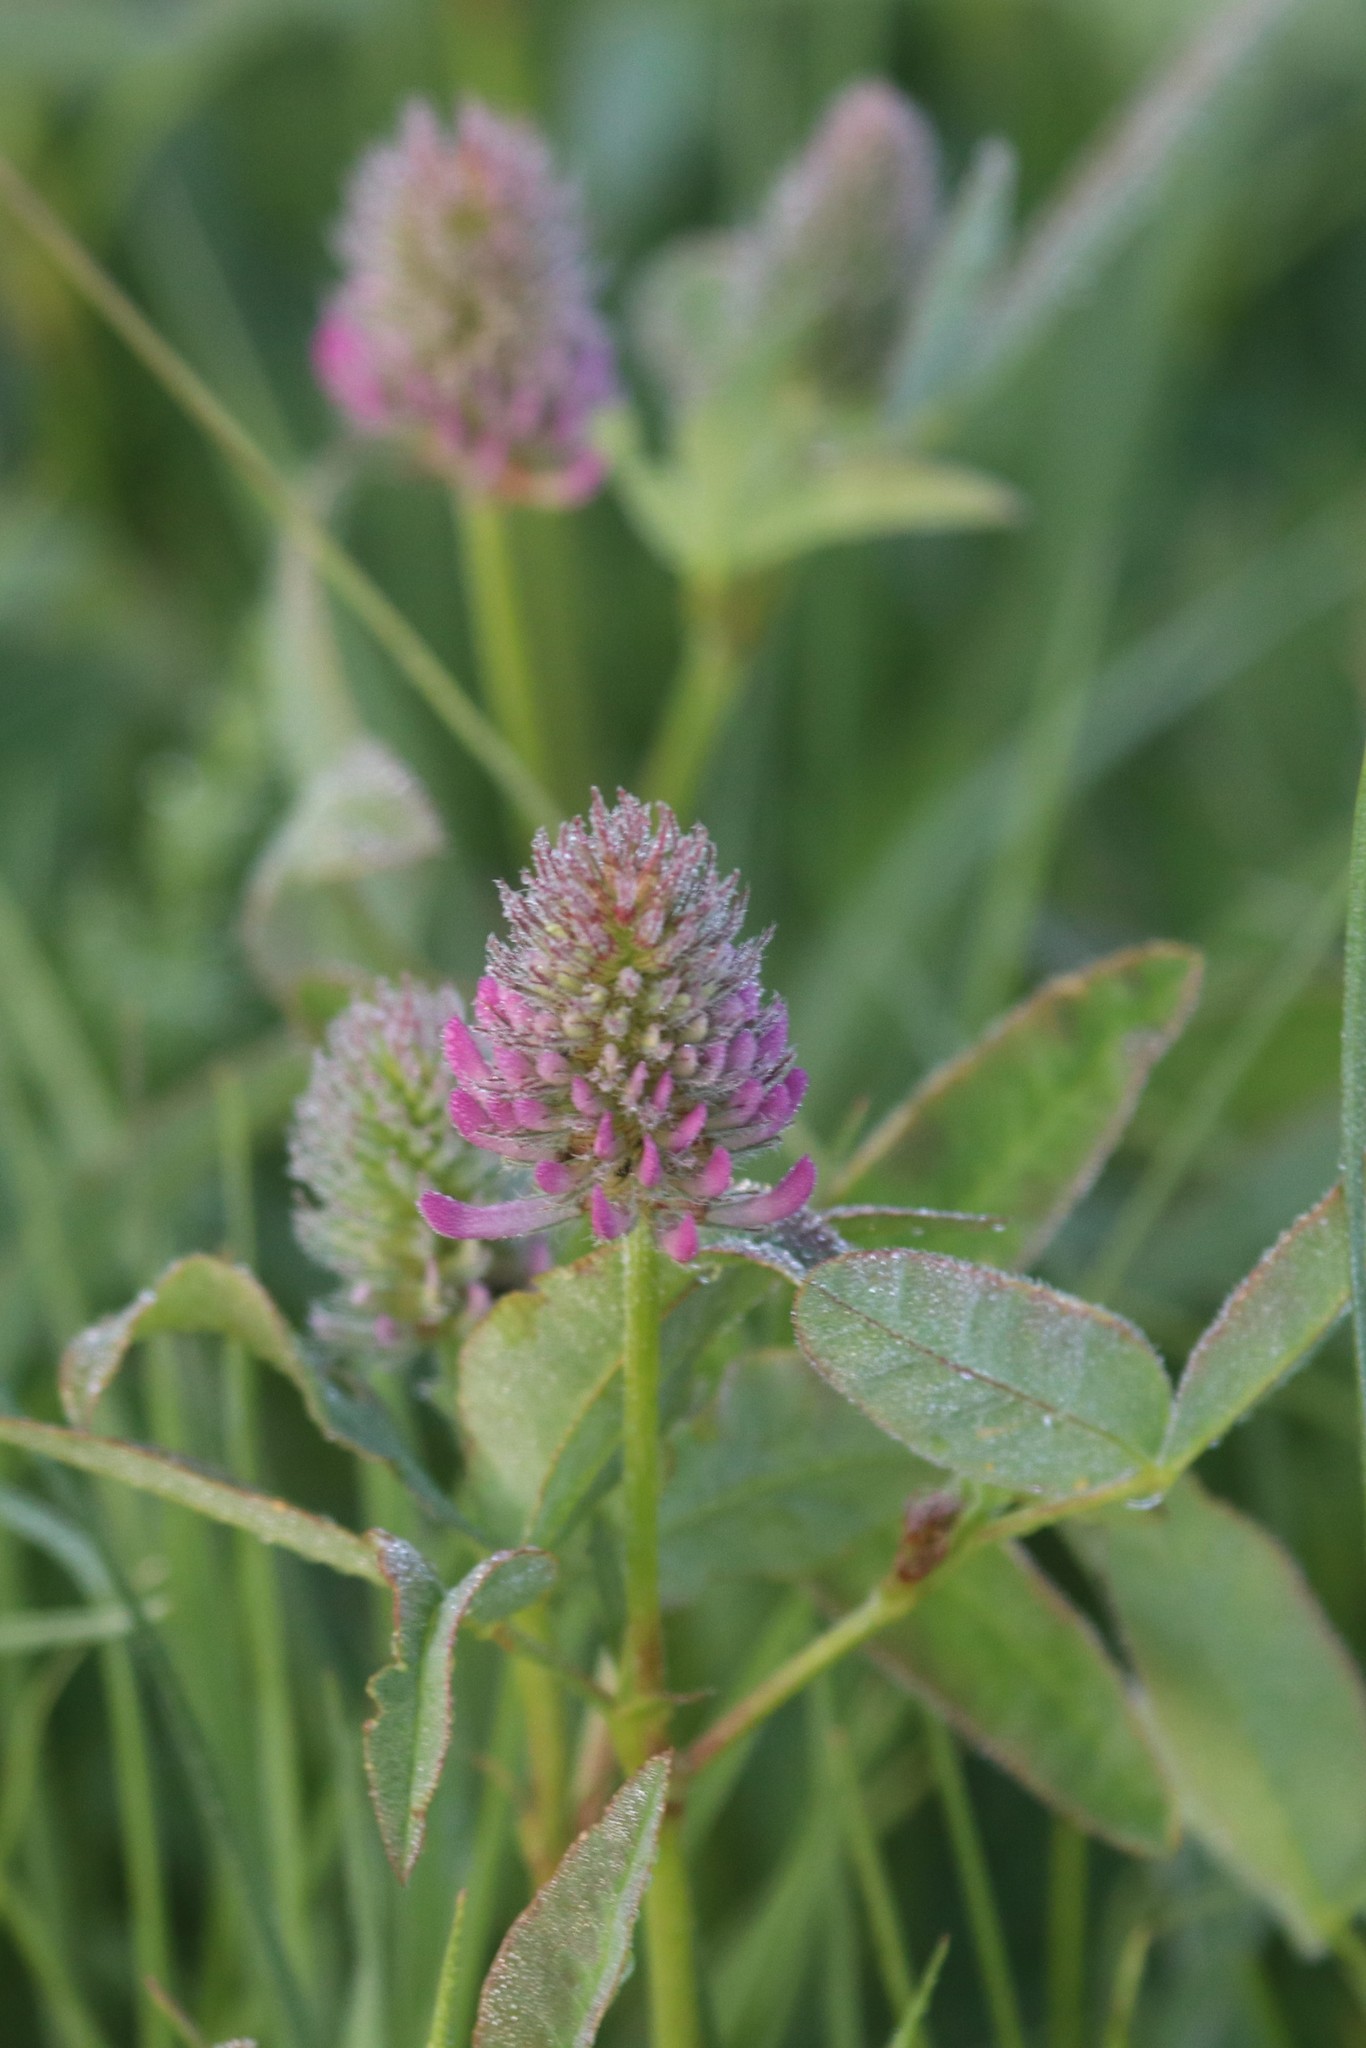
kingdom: Plantae
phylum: Tracheophyta
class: Magnoliopsida
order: Fabales
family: Fabaceae
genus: Trifolium
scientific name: Trifolium medium
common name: Zigzag clover
